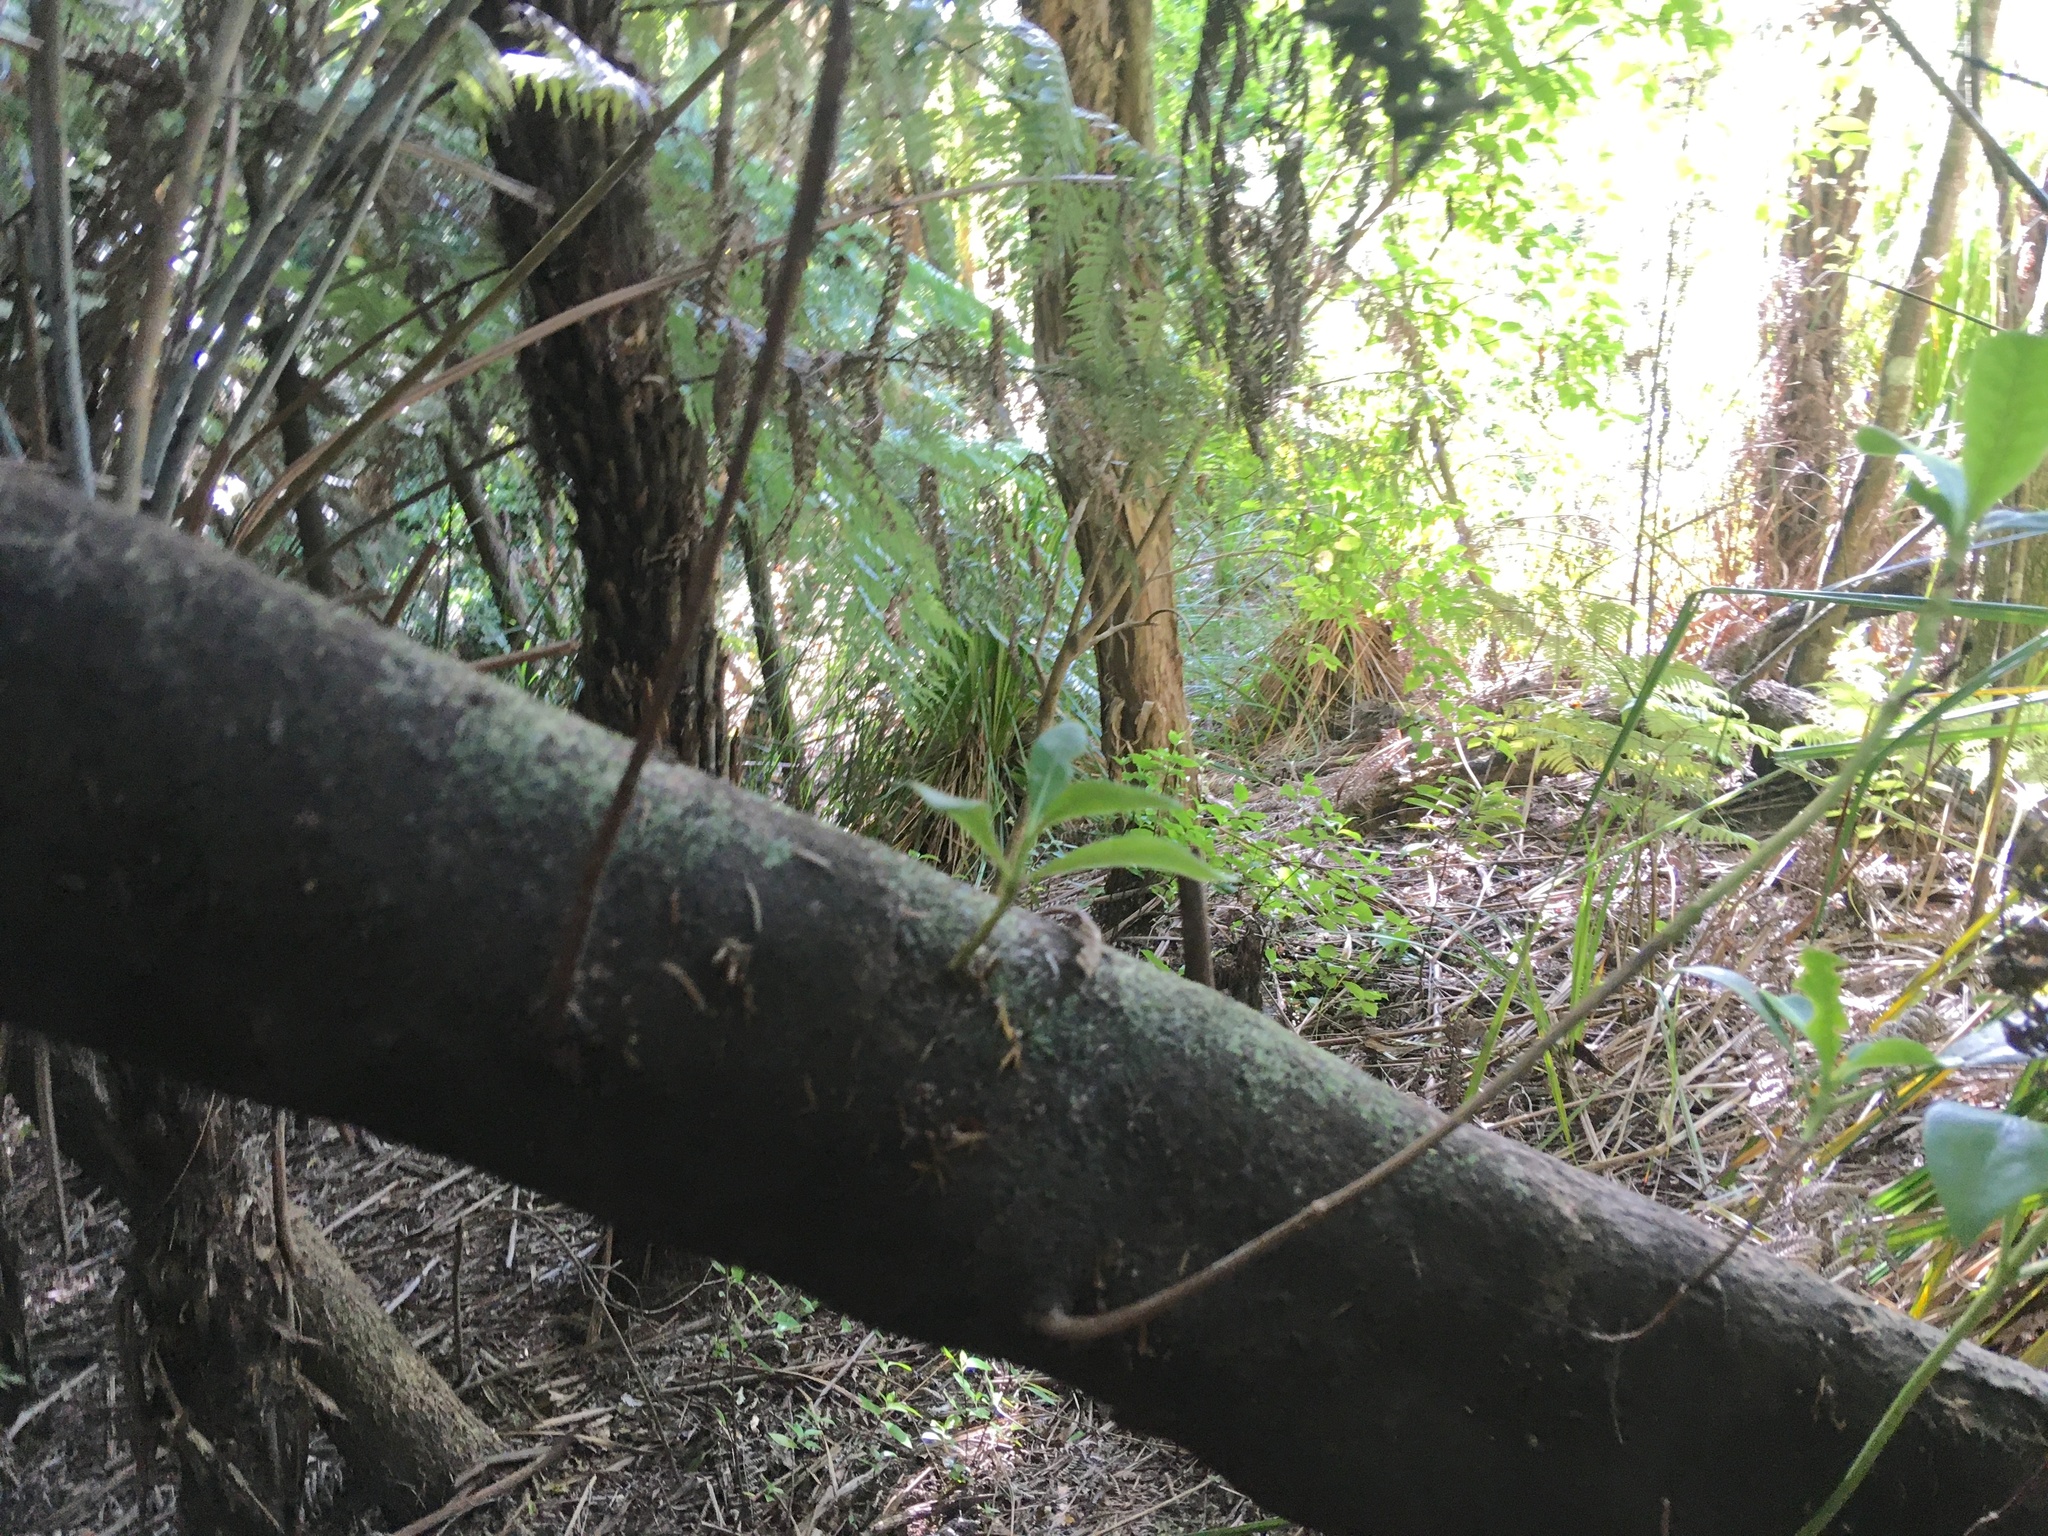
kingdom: Plantae
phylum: Tracheophyta
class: Polypodiopsida
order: Cyatheales
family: Cyatheaceae
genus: Alsophila
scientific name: Alsophila dealbata
